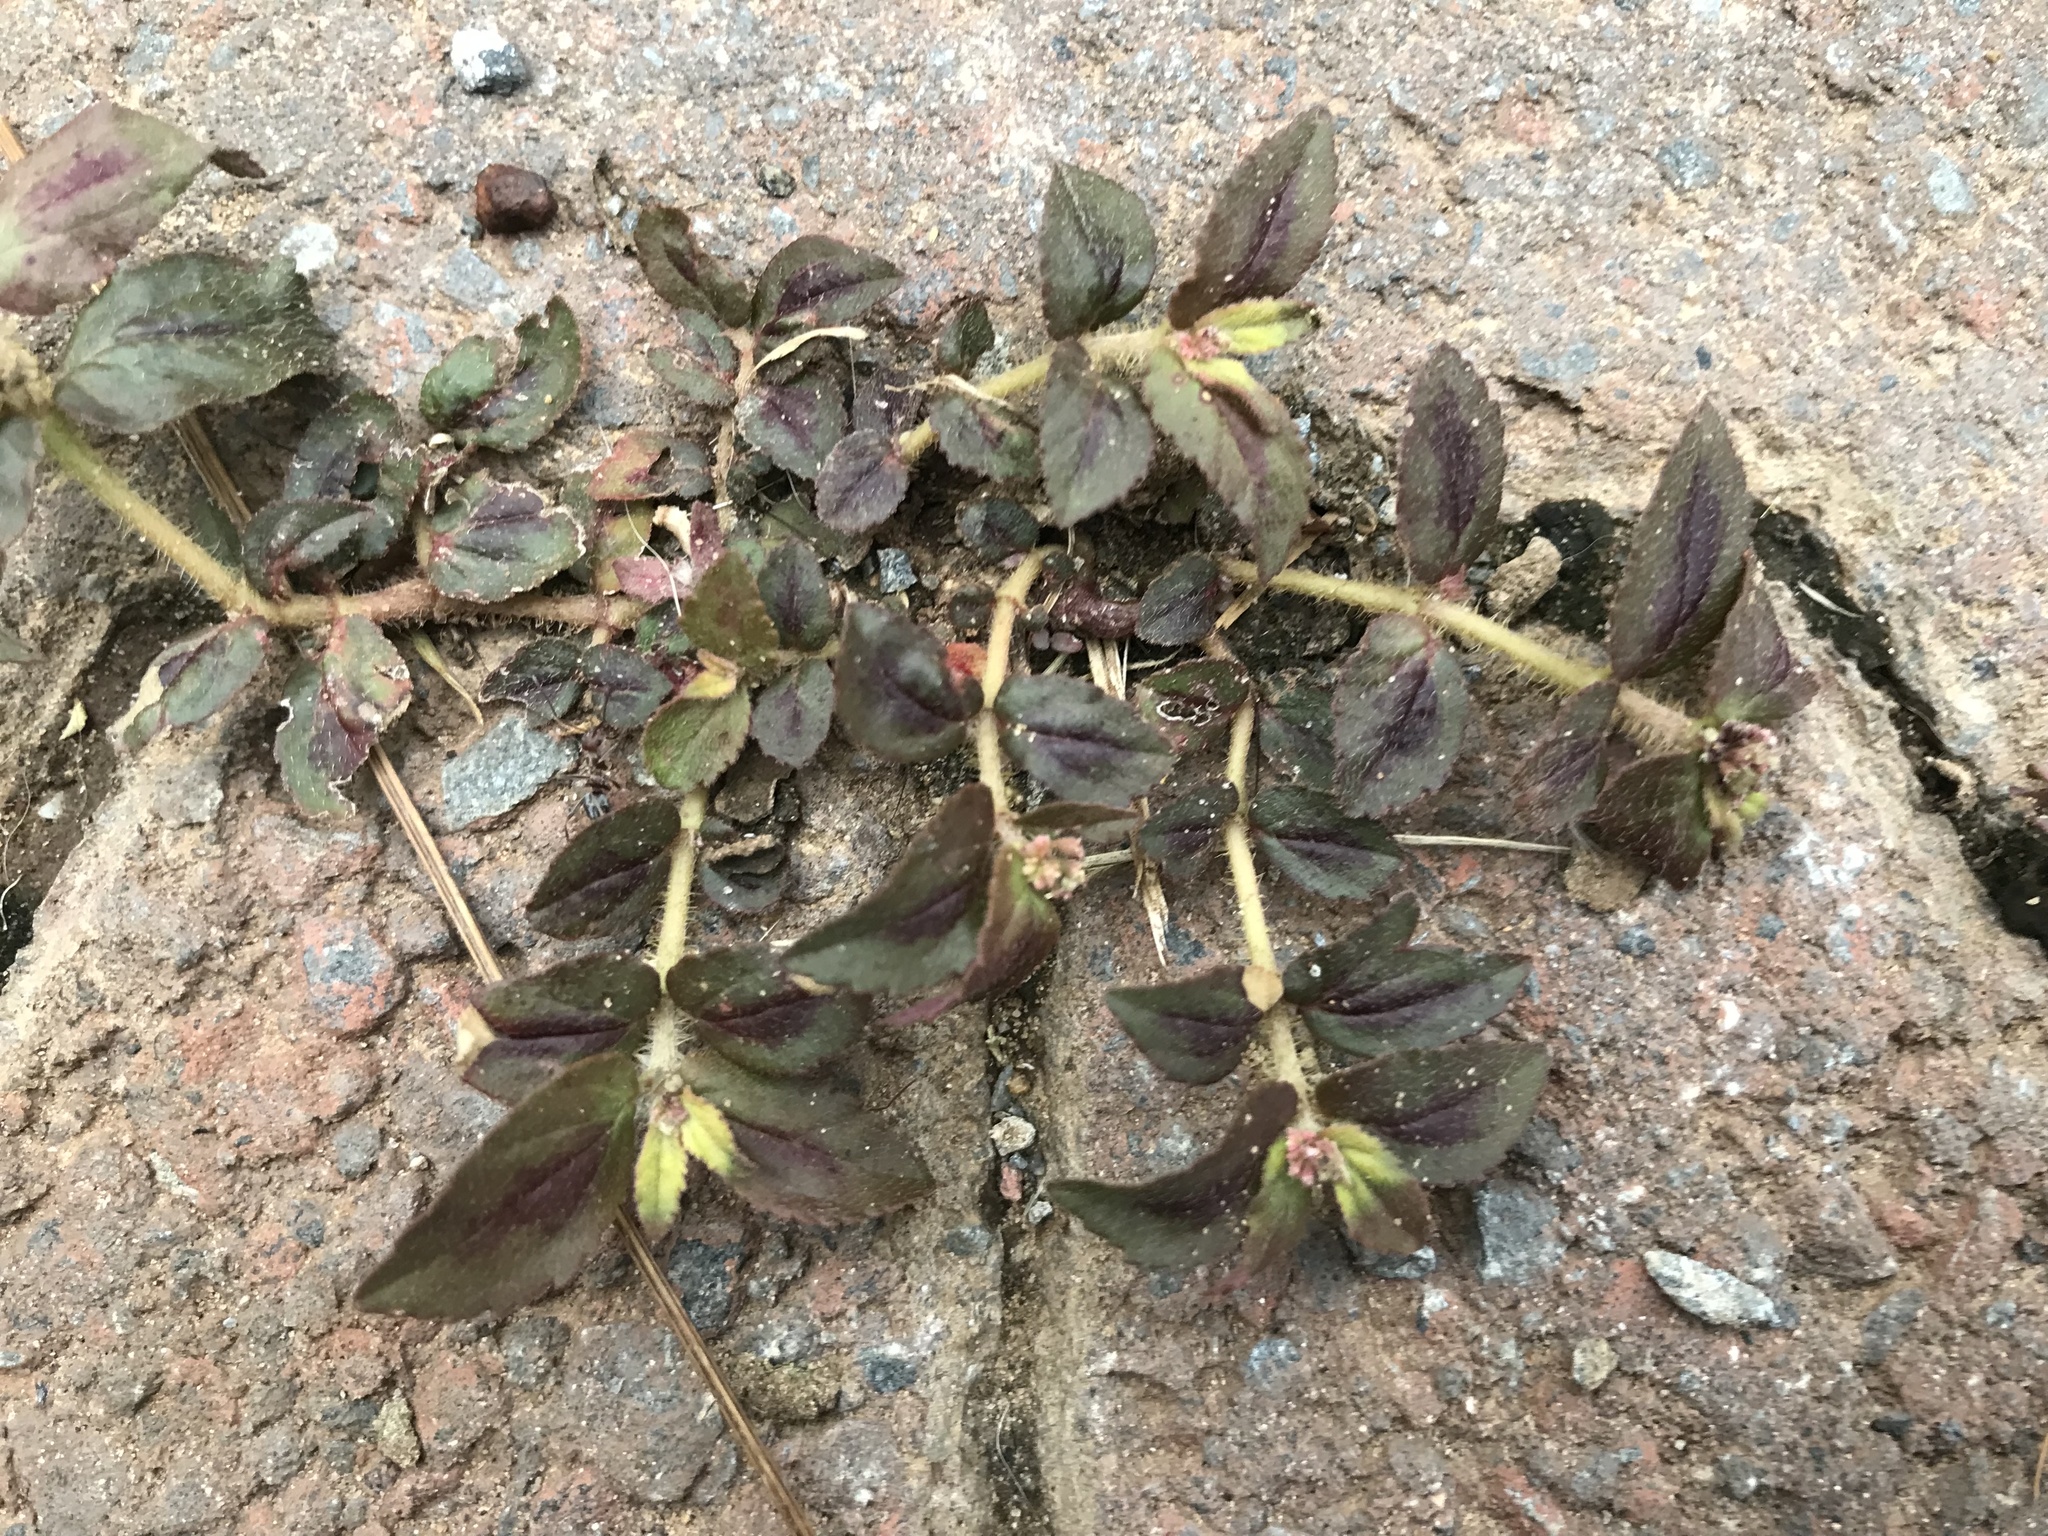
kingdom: Plantae
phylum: Tracheophyta
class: Magnoliopsida
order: Malpighiales
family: Euphorbiaceae
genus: Euphorbia
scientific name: Euphorbia hirta
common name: Pillpod sandmat
